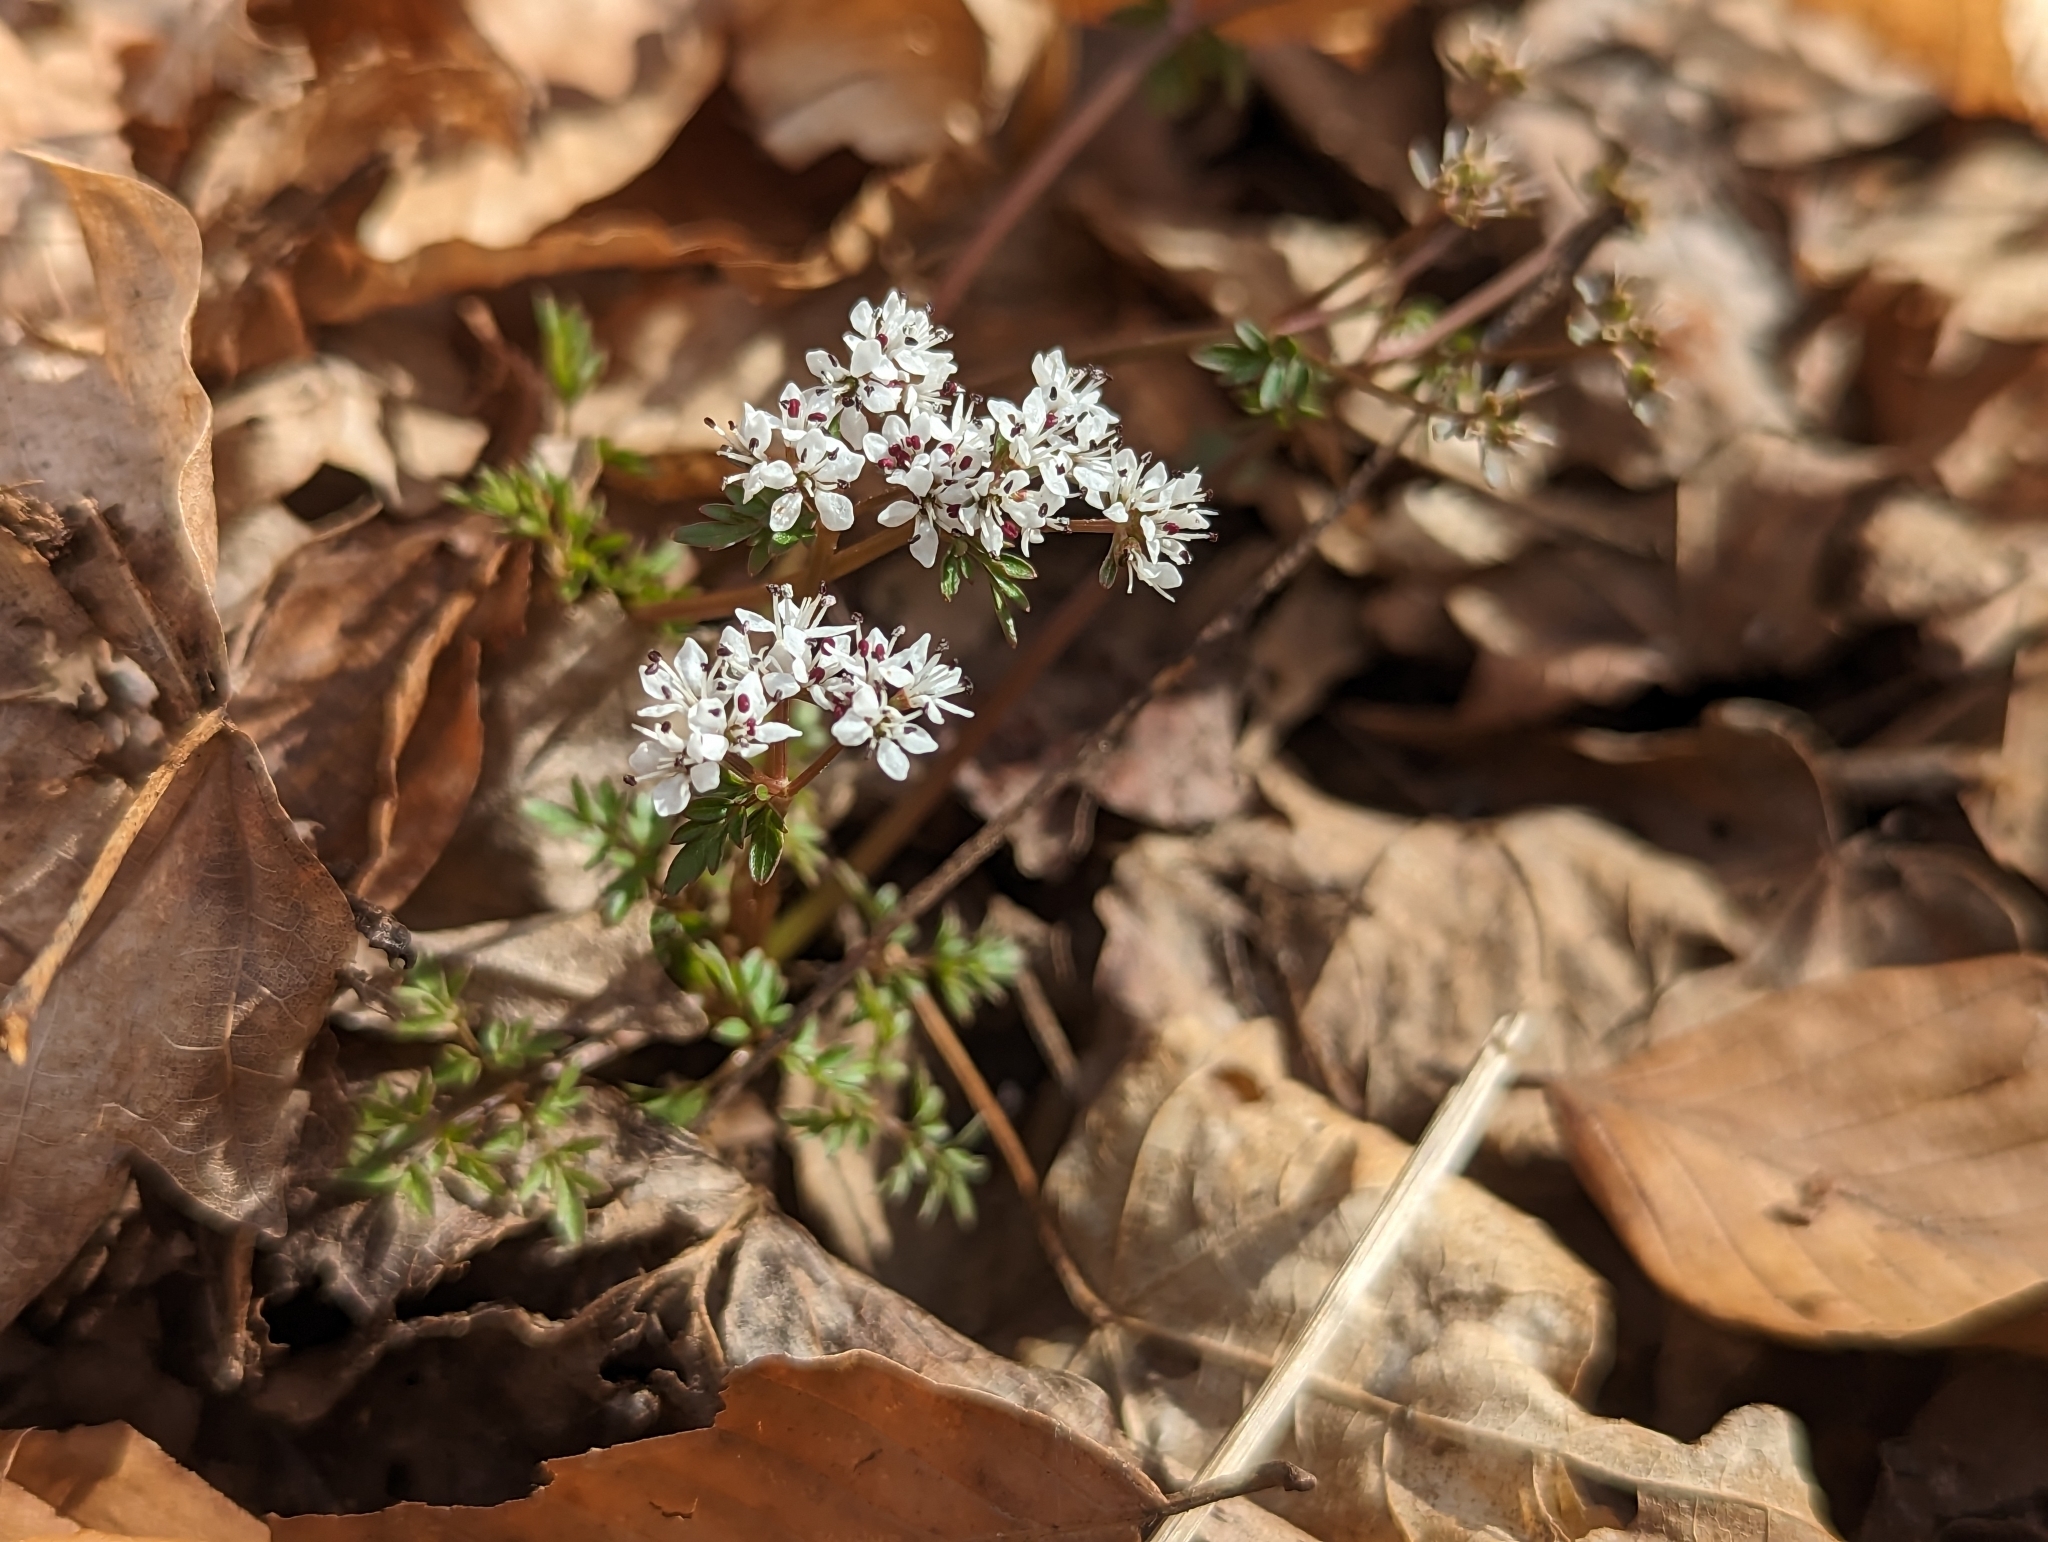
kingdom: Plantae
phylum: Tracheophyta
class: Magnoliopsida
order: Apiales
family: Apiaceae
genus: Erigenia
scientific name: Erigenia bulbosa
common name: Pepper-and-salt
